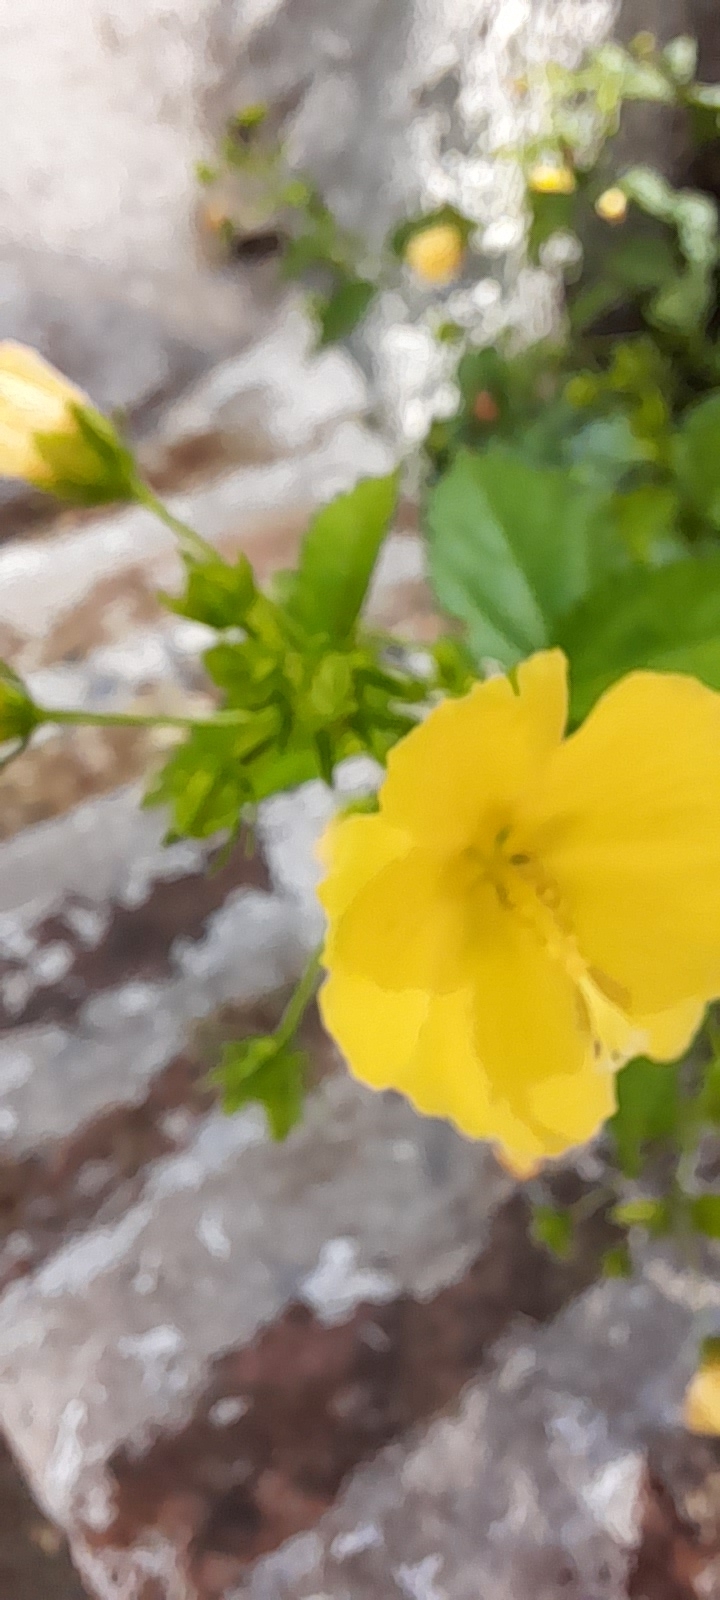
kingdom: Plantae
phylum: Tracheophyta
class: Magnoliopsida
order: Malvales
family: Malvaceae
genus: Pavonia
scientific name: Pavonia sepium
